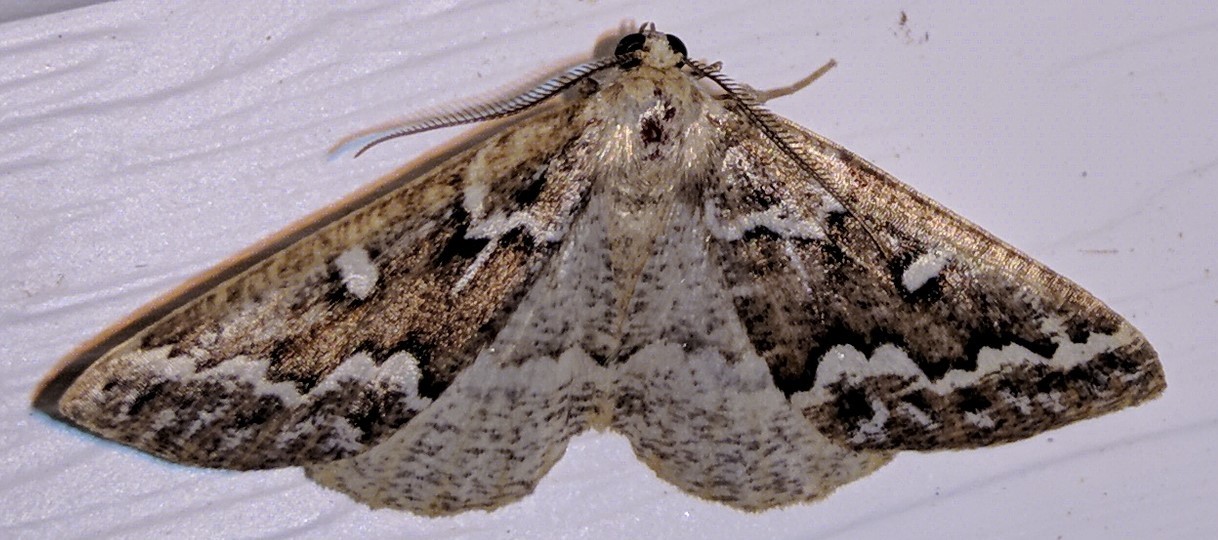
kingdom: Animalia
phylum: Arthropoda
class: Insecta
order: Lepidoptera
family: Geometridae
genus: Caripeta
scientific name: Caripeta divisata
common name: Gray spruce looper
